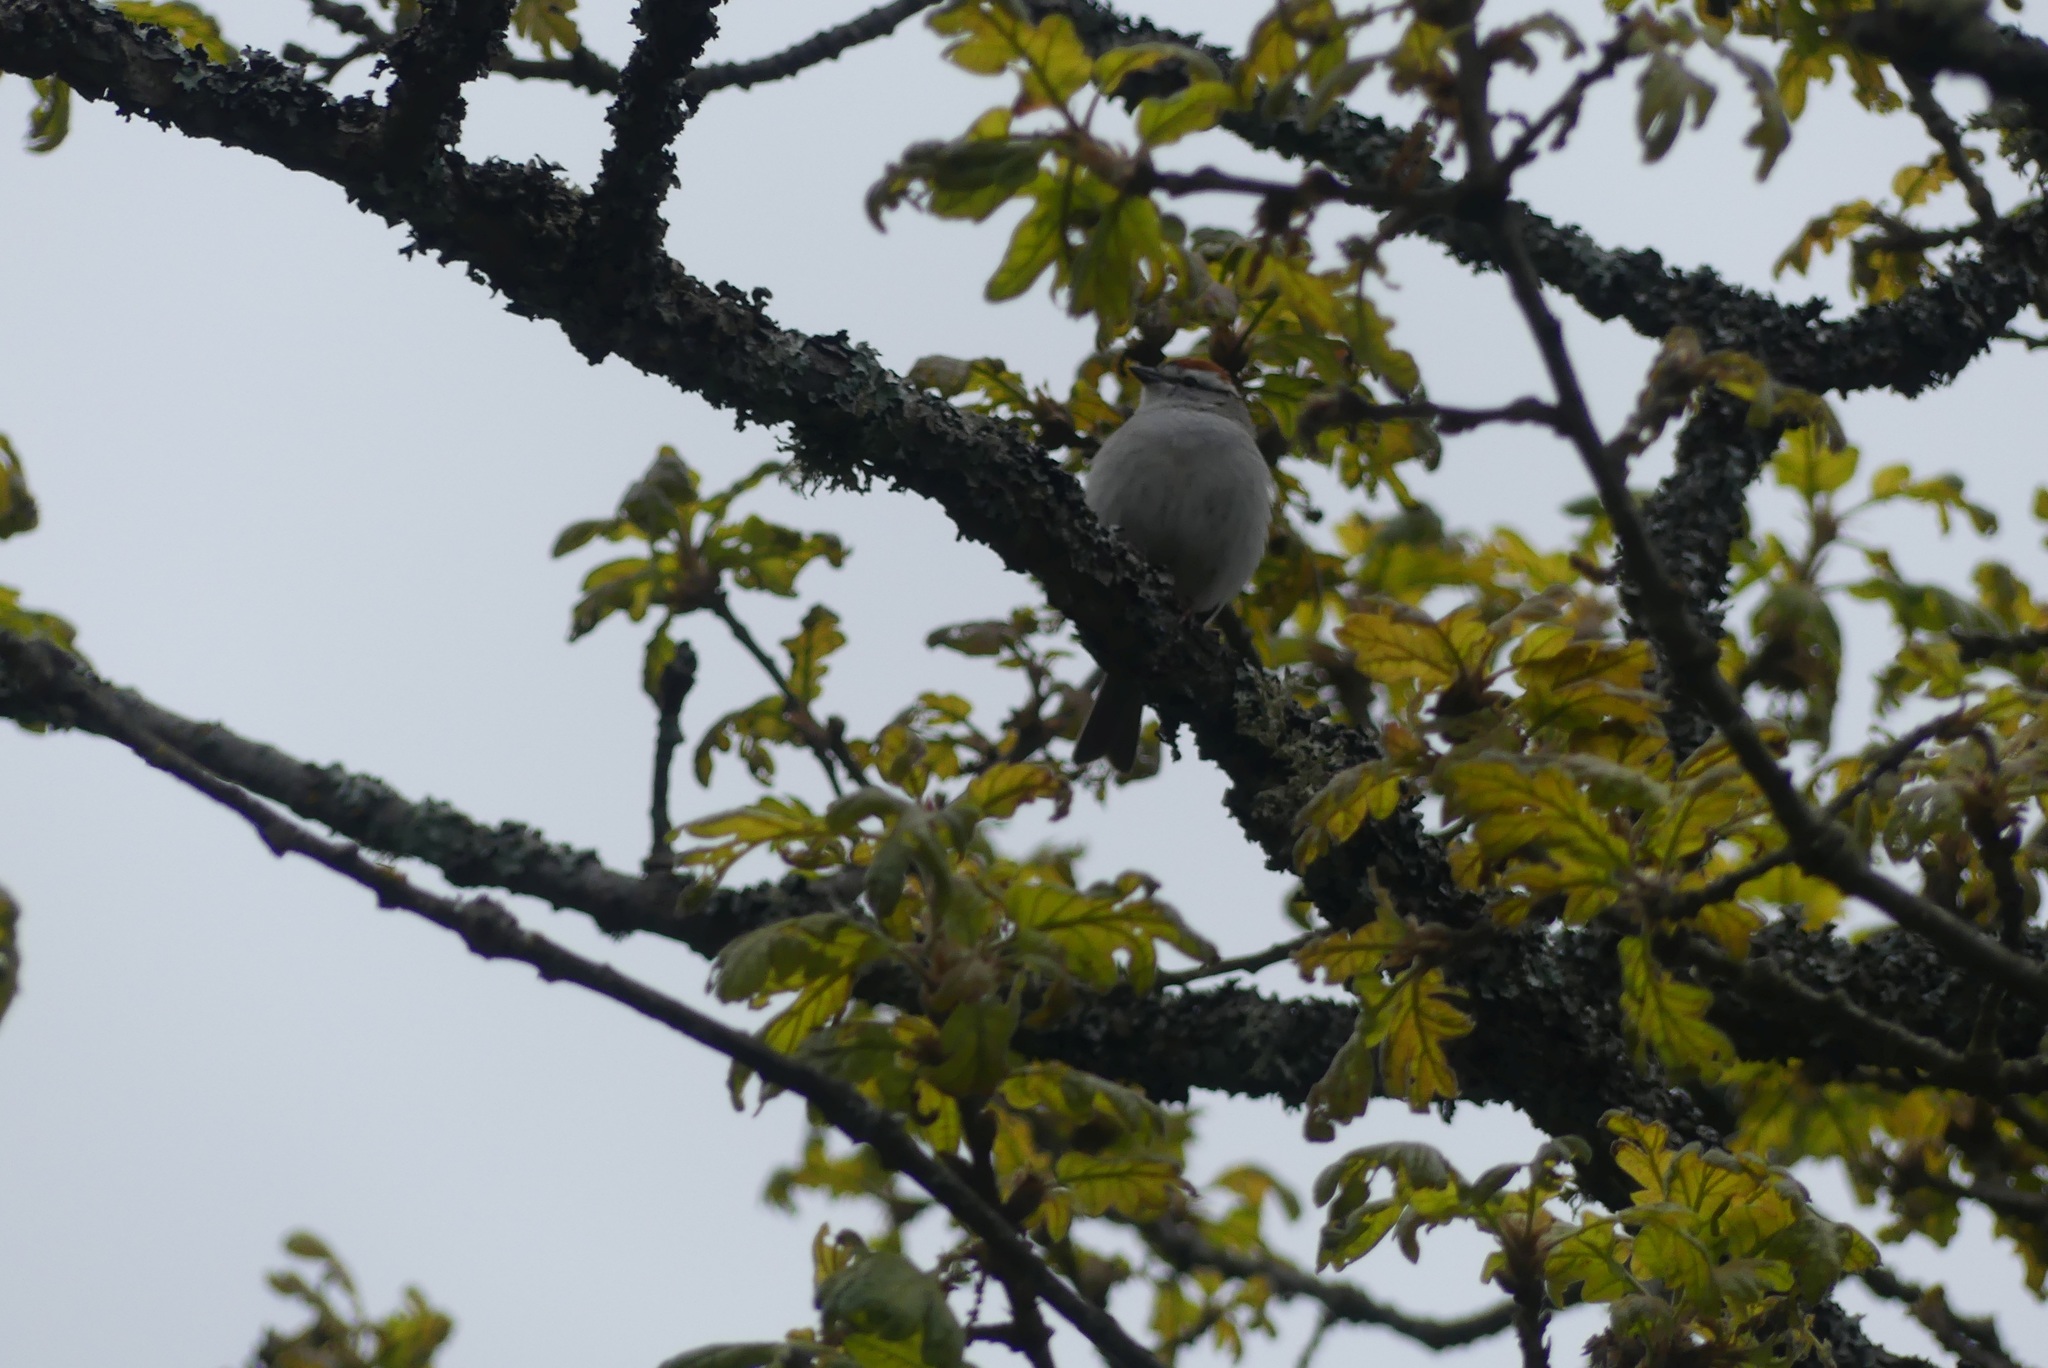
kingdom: Animalia
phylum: Chordata
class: Aves
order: Passeriformes
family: Passerellidae
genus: Spizella
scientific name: Spizella passerina
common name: Chipping sparrow
